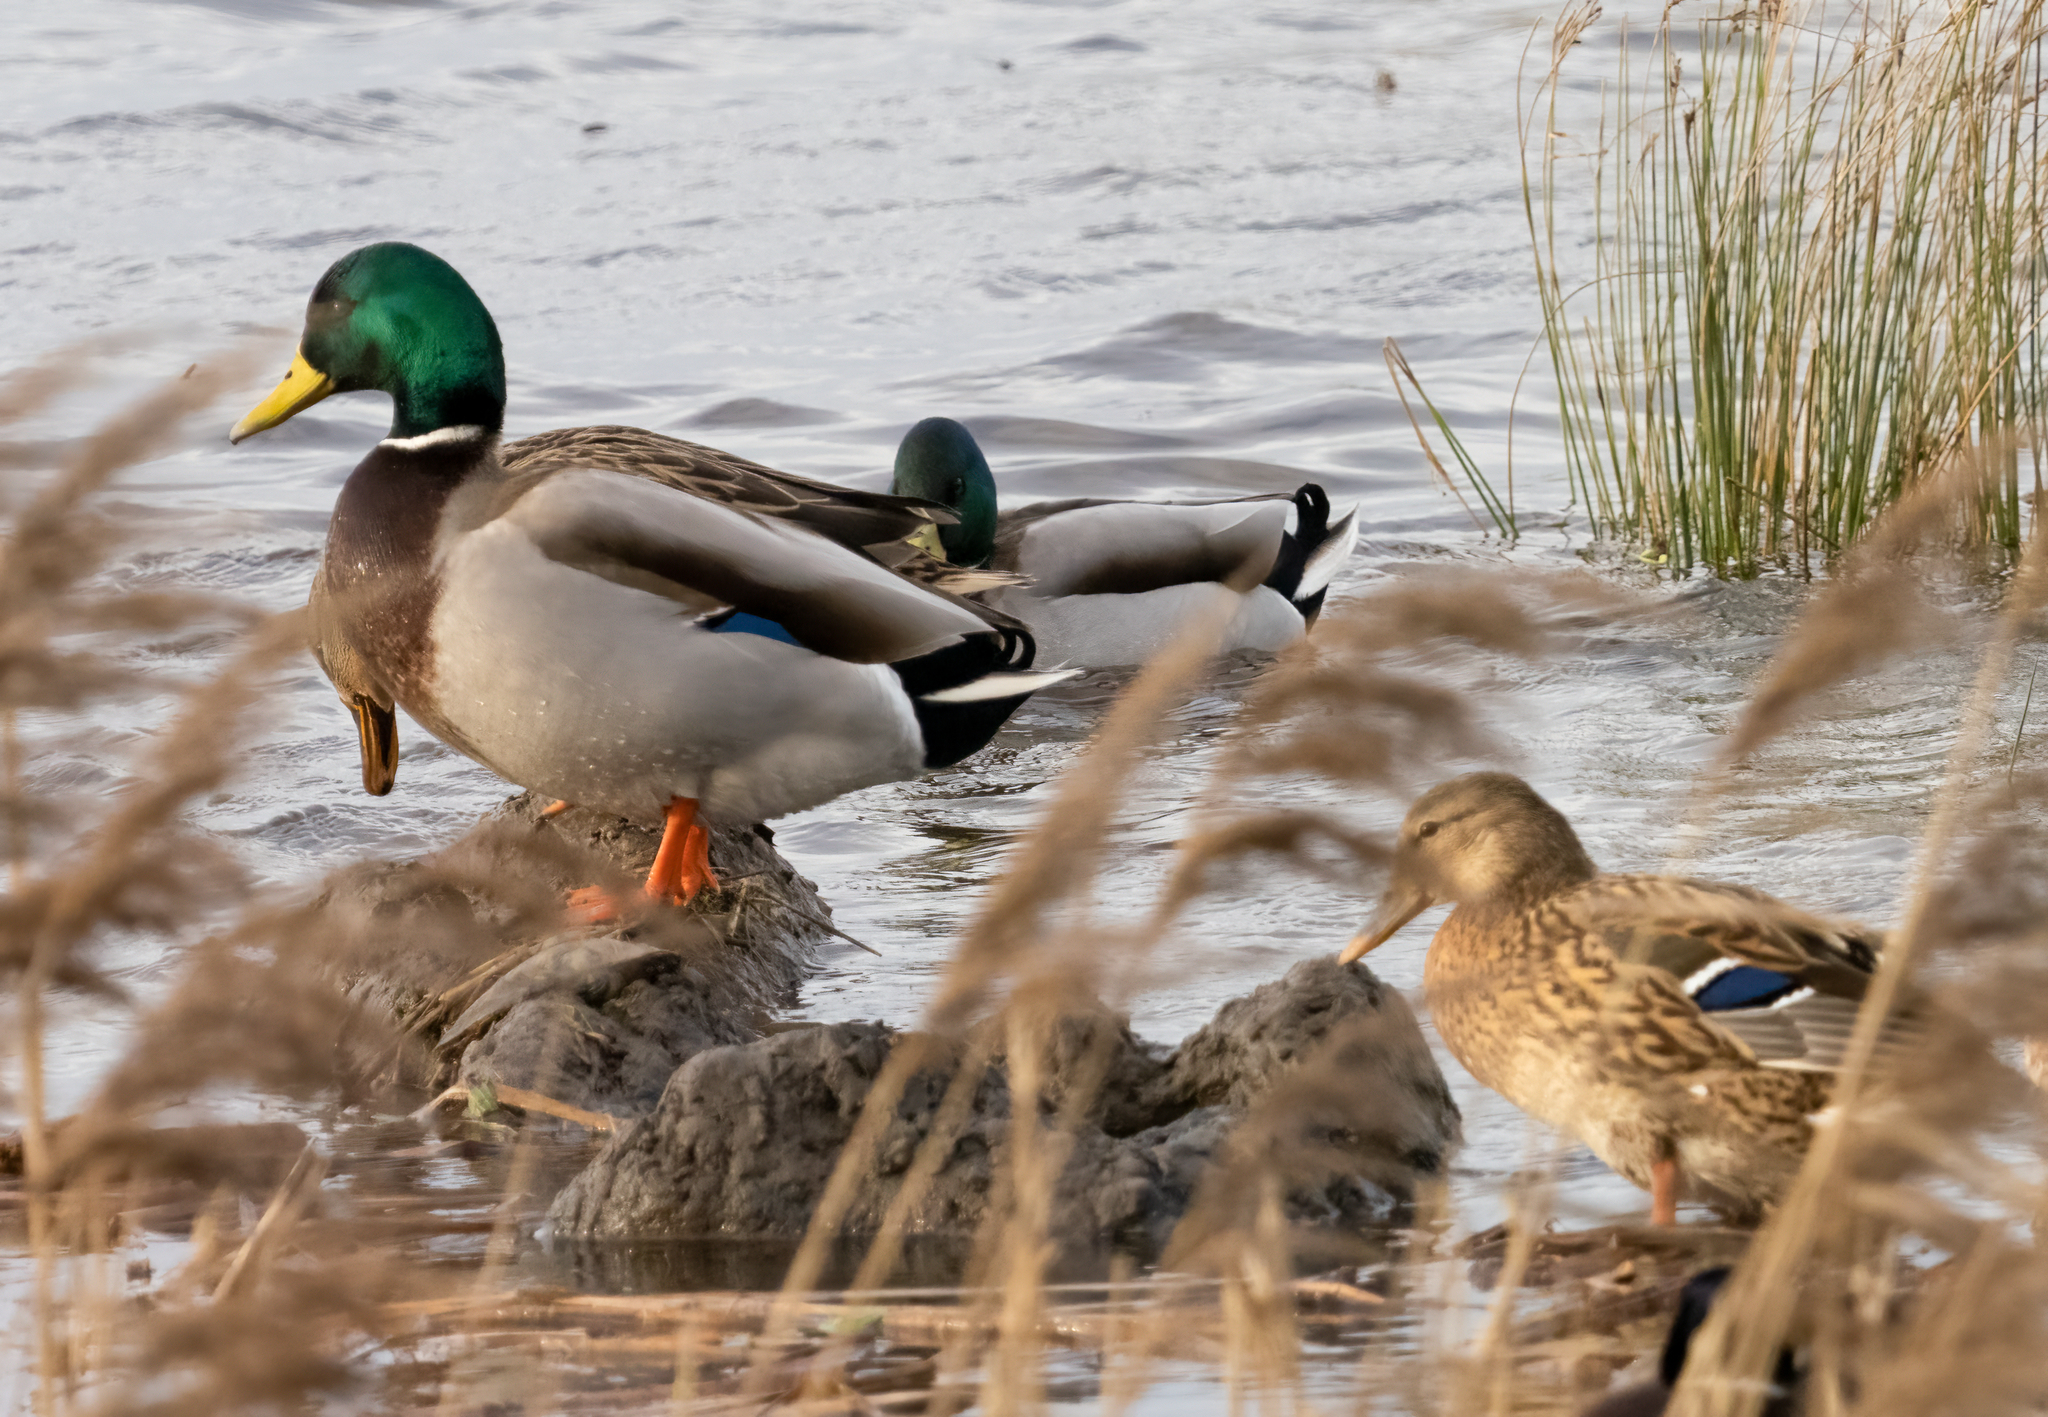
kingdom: Animalia
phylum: Chordata
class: Aves
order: Anseriformes
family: Anatidae
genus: Anas
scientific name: Anas platyrhynchos
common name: Mallard
